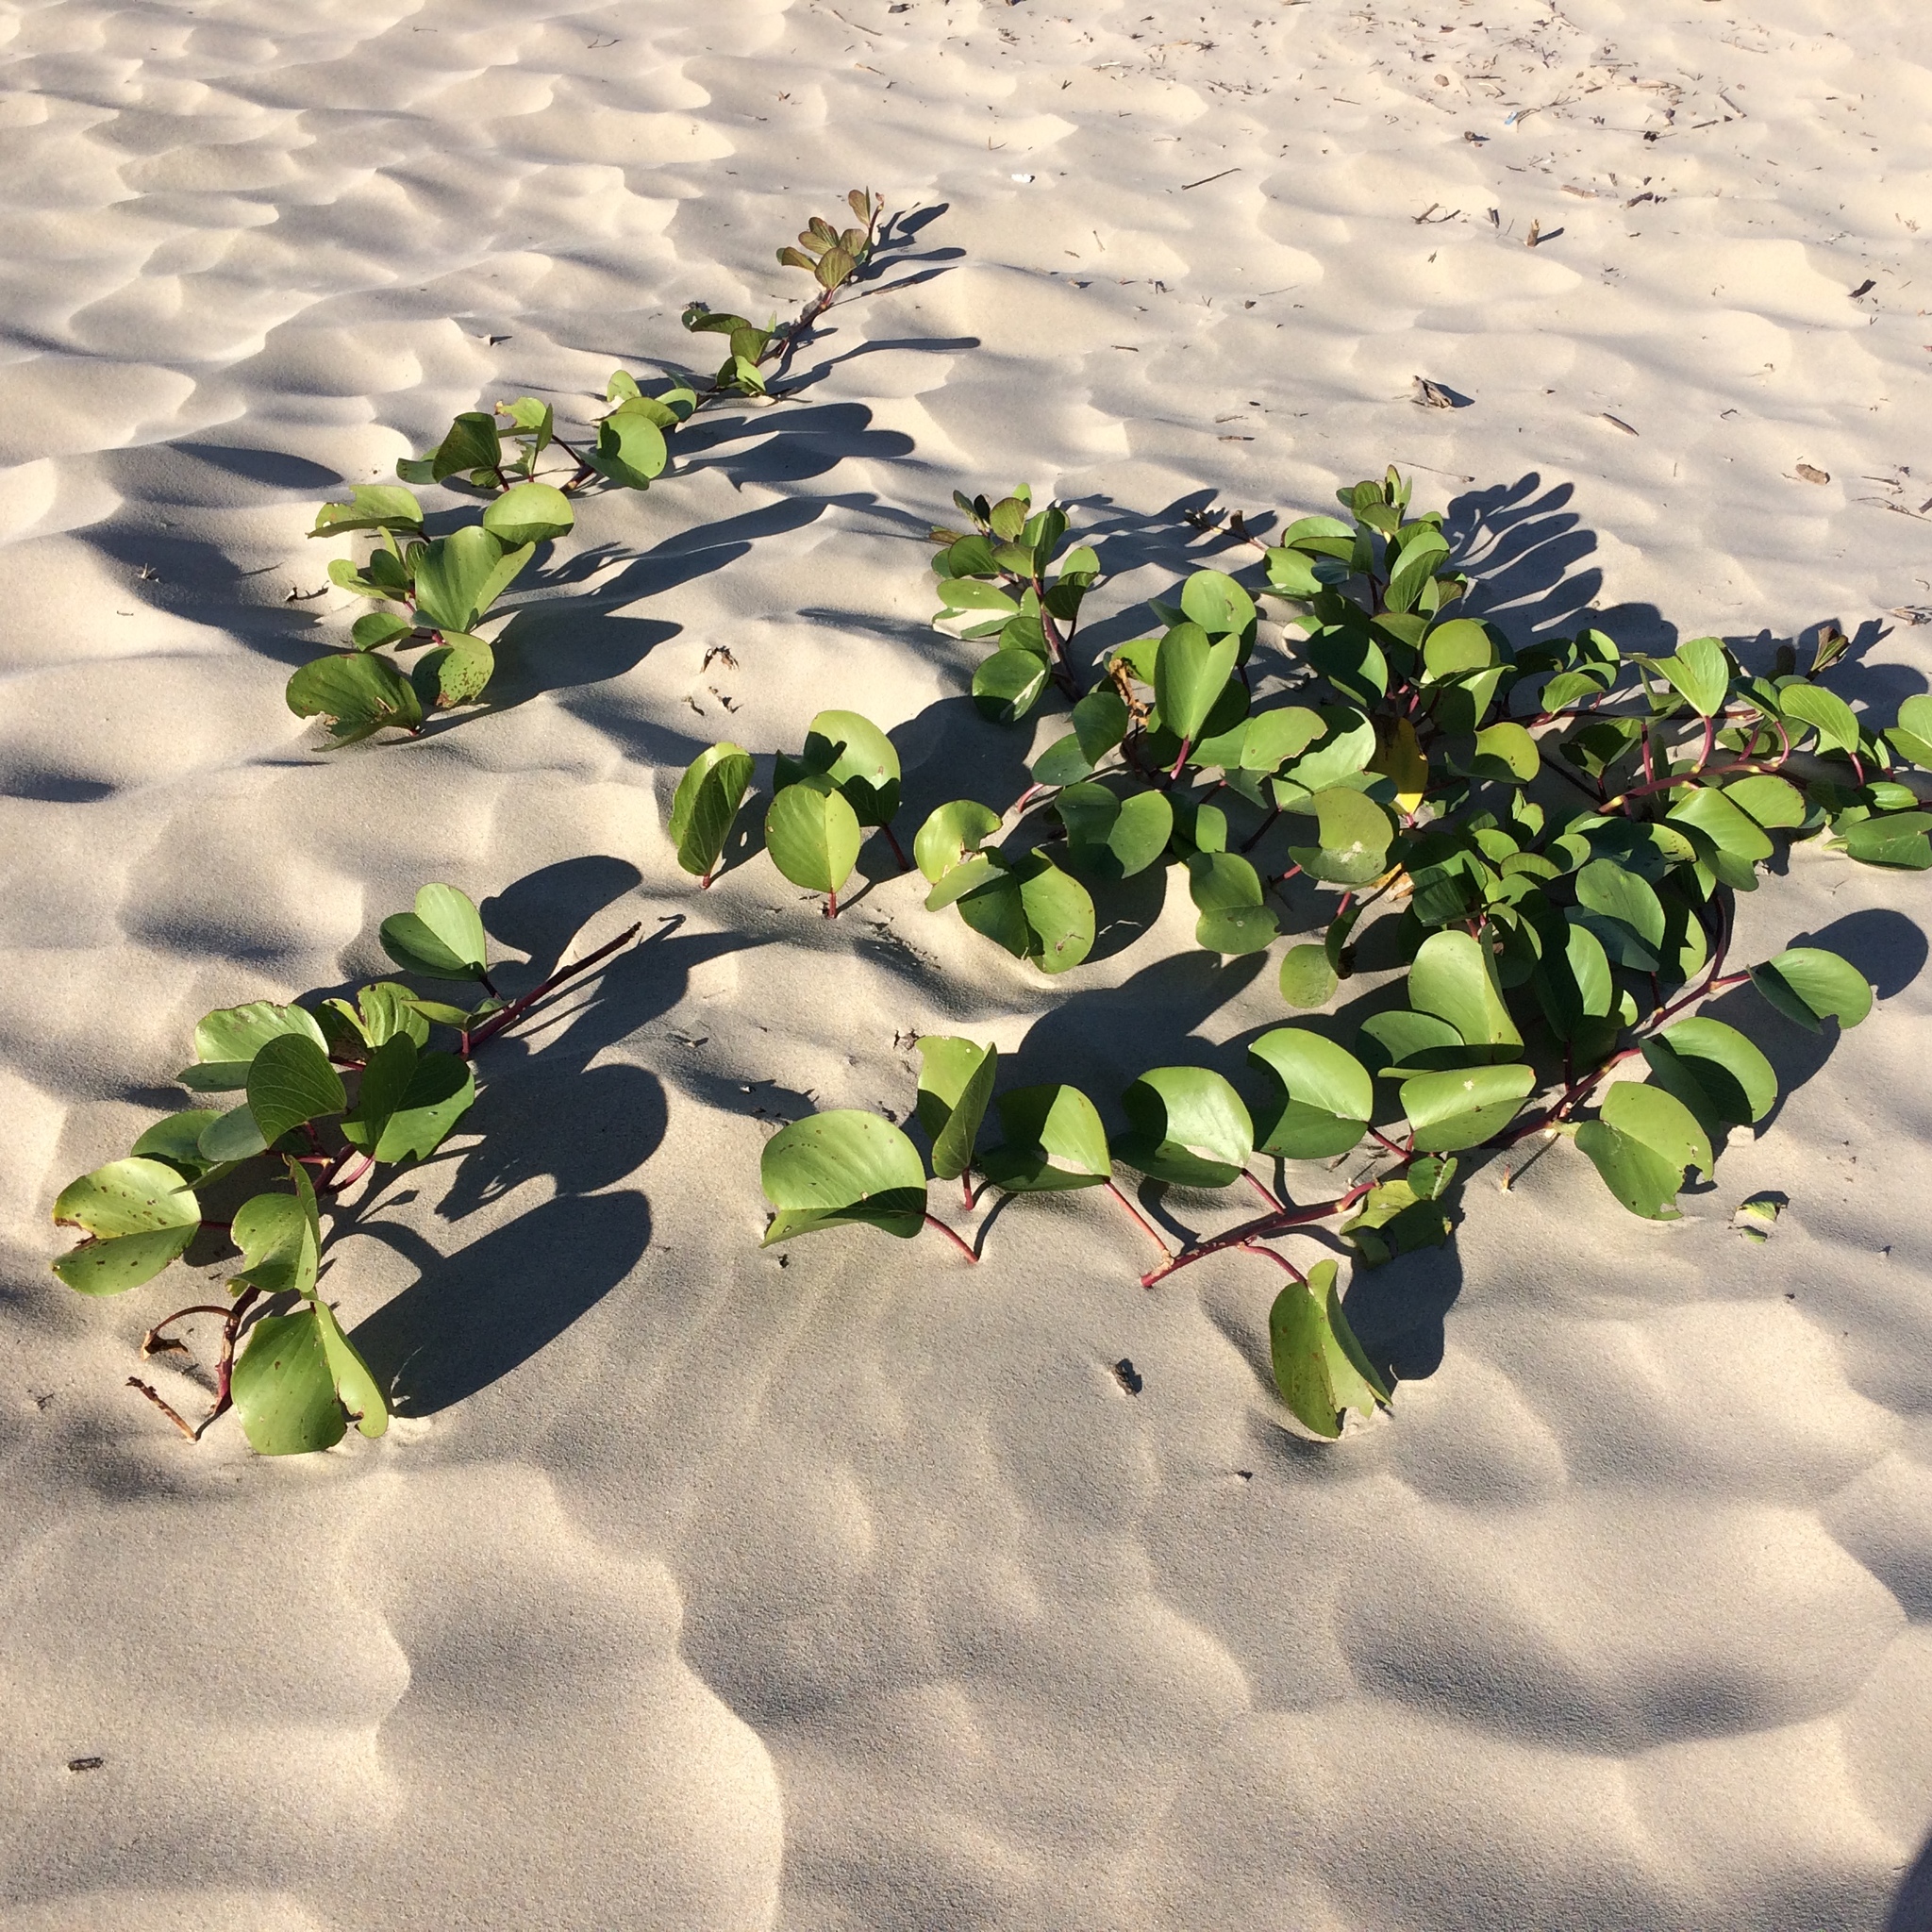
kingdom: Plantae
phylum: Tracheophyta
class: Magnoliopsida
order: Solanales
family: Convolvulaceae
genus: Ipomoea
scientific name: Ipomoea pes-caprae
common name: Beach morning glory
